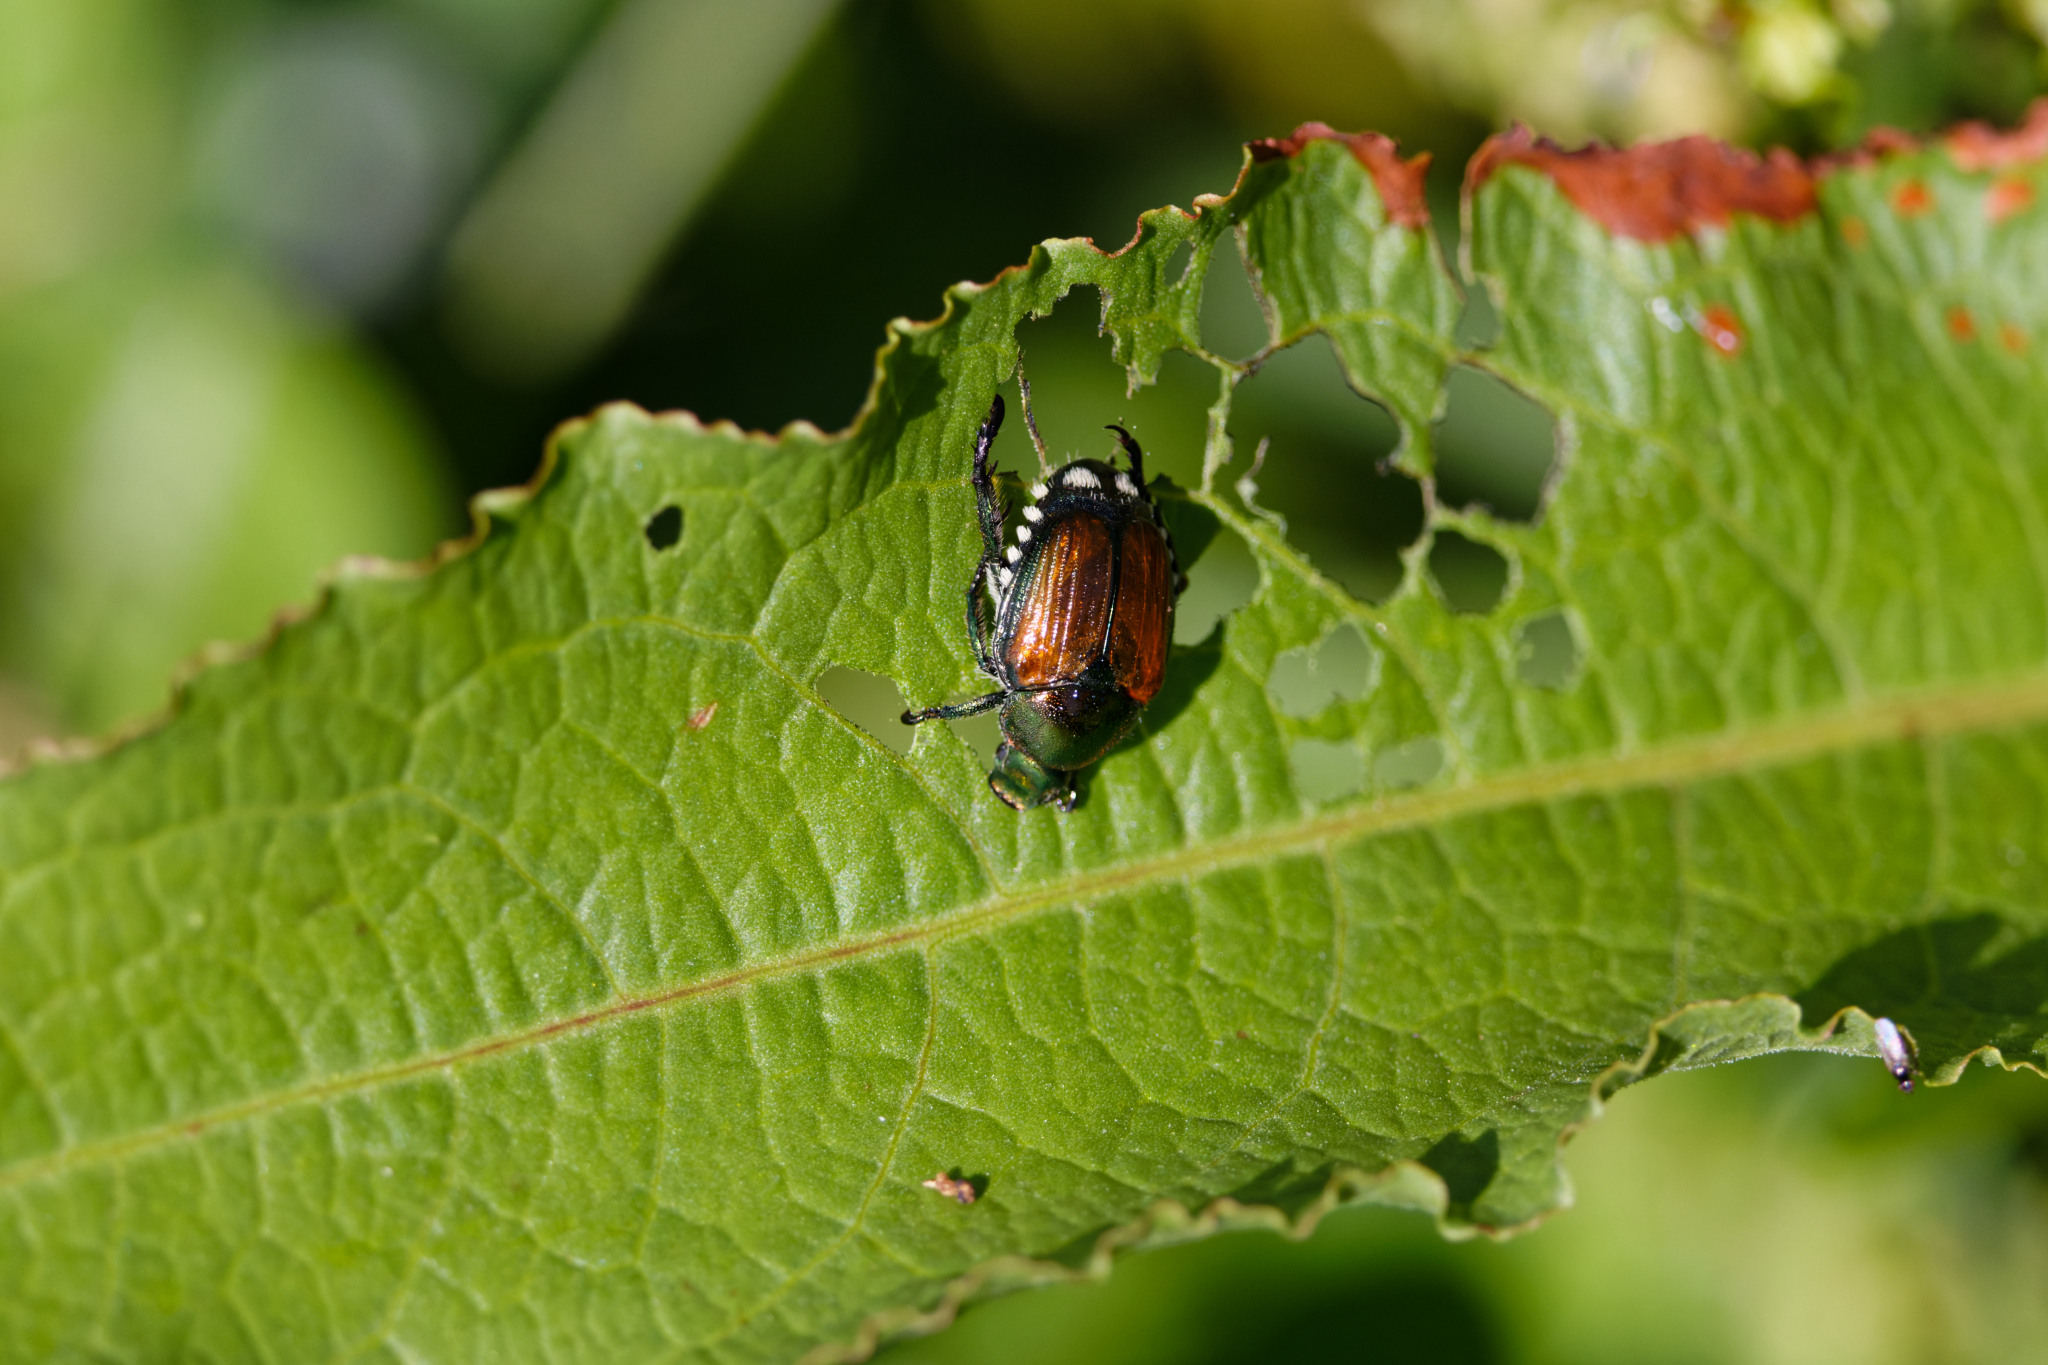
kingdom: Animalia
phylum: Arthropoda
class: Insecta
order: Coleoptera
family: Scarabaeidae
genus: Popillia
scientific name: Popillia japonica
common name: Japanese beetle
